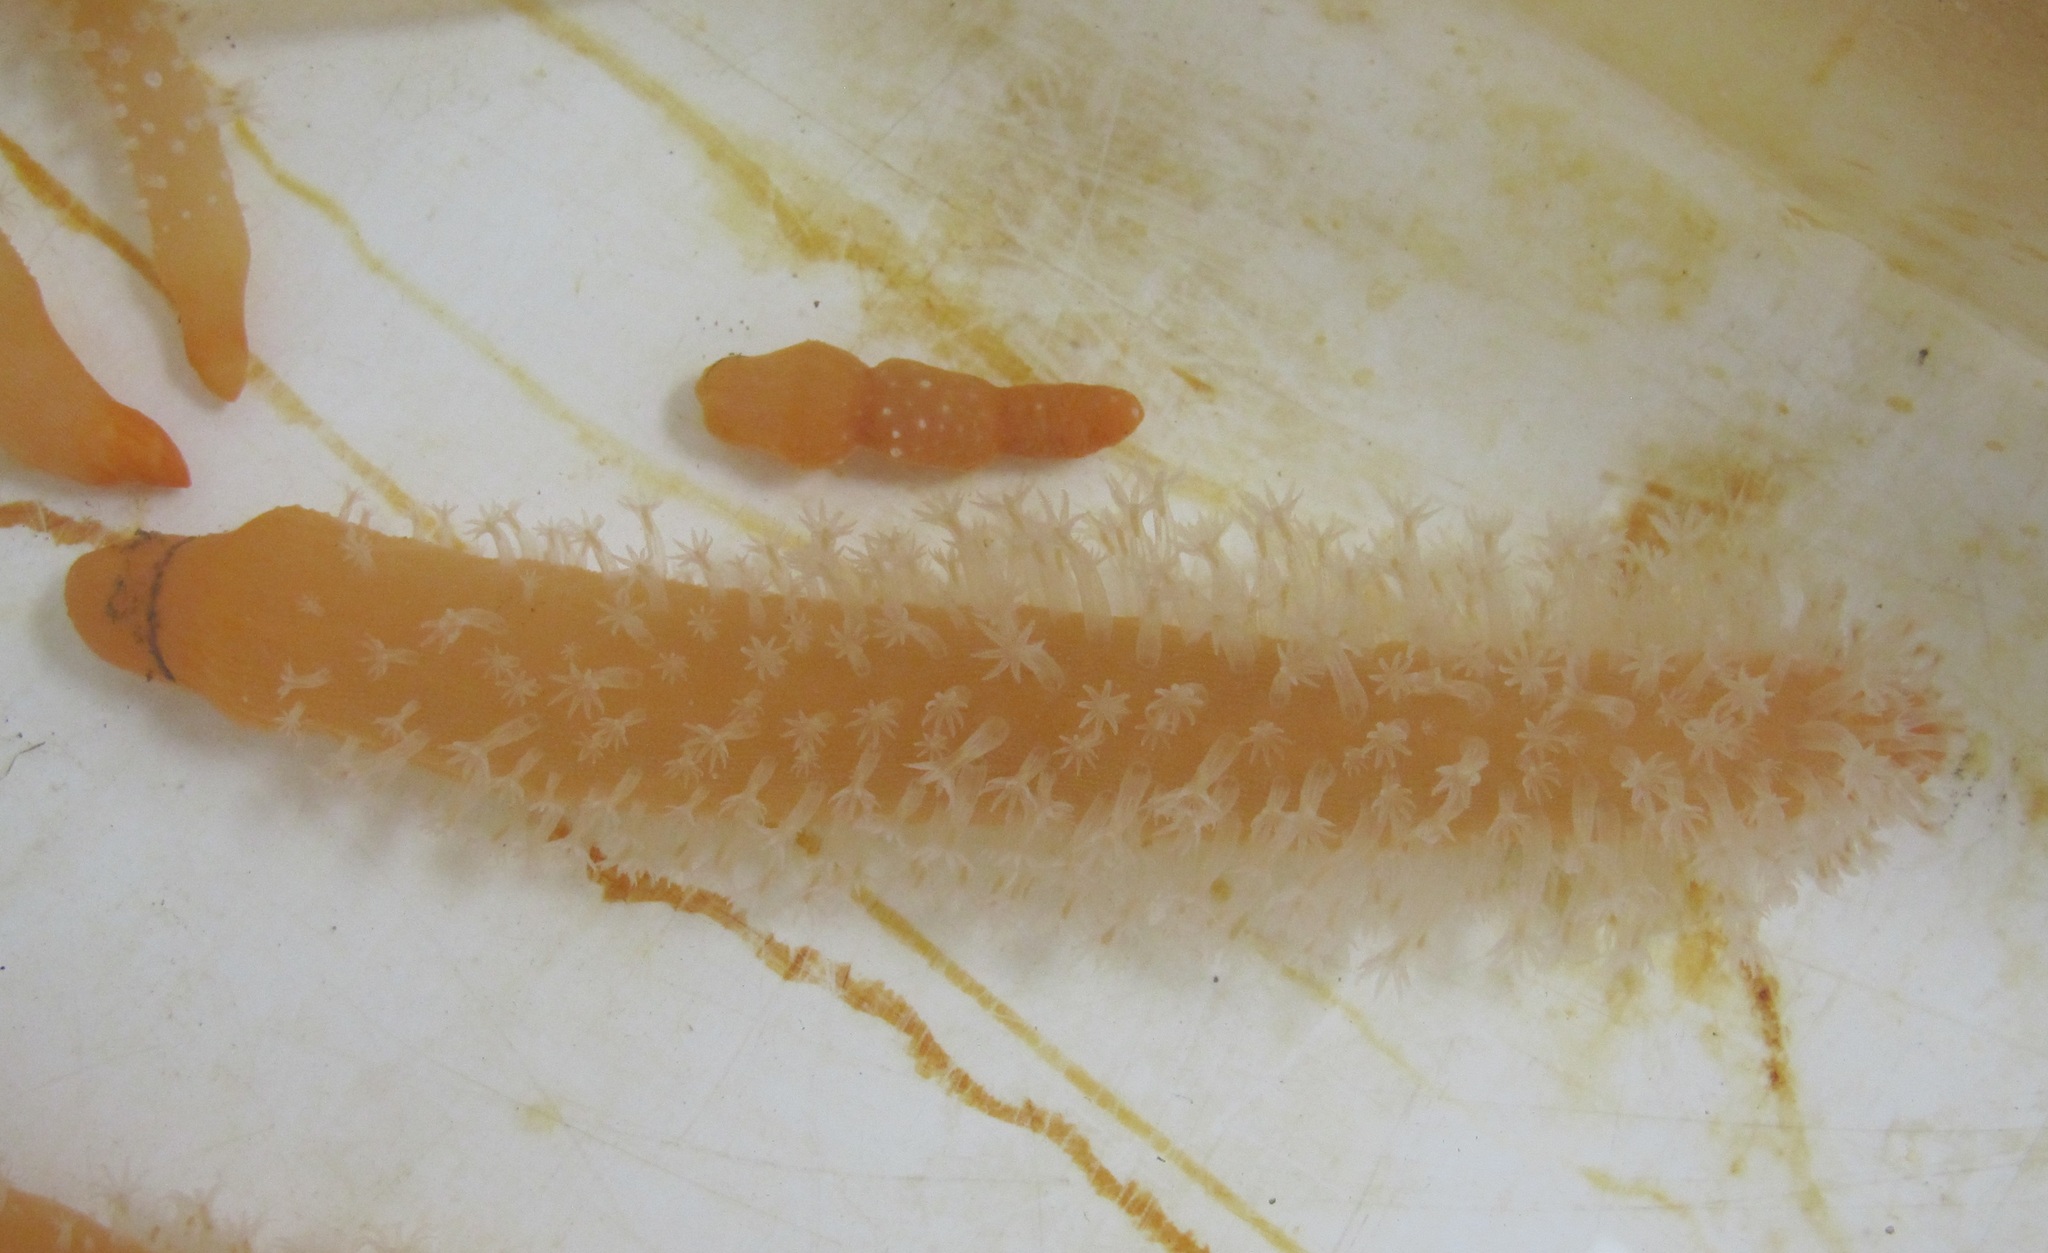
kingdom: Animalia
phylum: Cnidaria
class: Anthozoa
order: Scleralcyonacea
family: Veretillidae
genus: Veretillum
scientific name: Veretillum cynomorium
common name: Finger-shaped sea-pen
